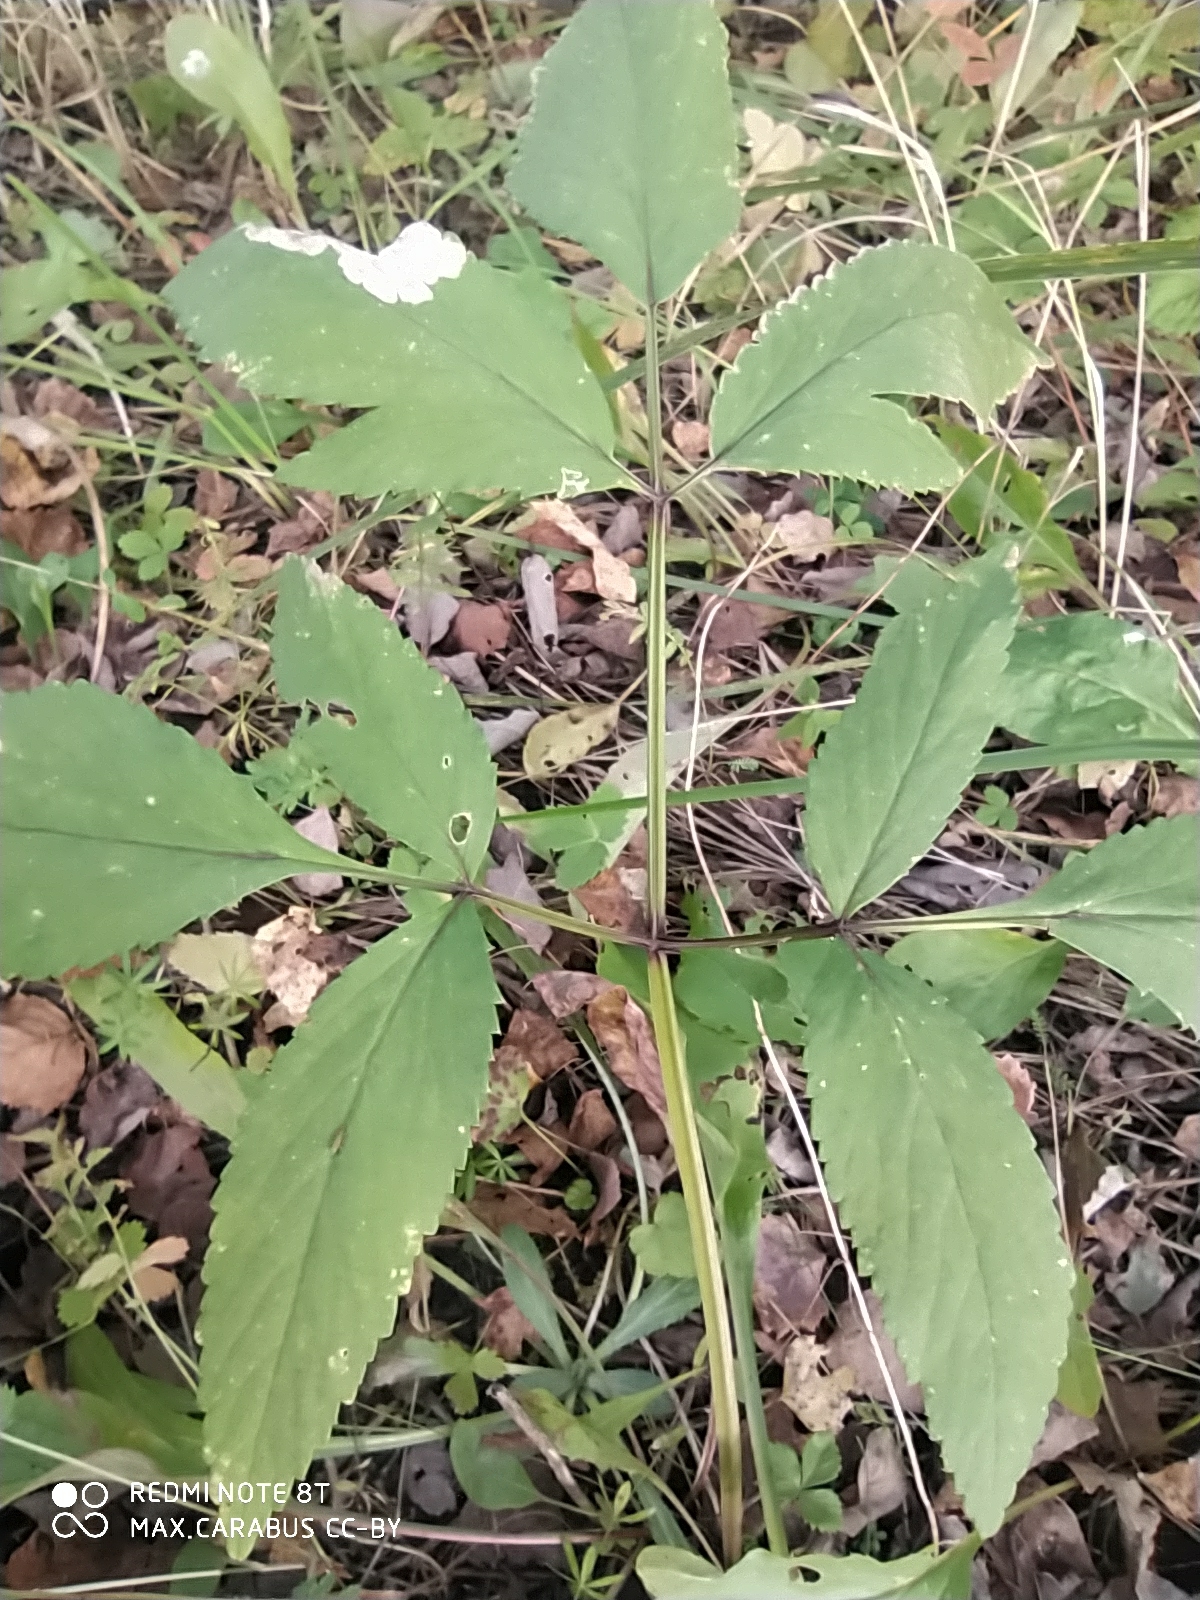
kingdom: Plantae
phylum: Tracheophyta
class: Magnoliopsida
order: Apiales
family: Apiaceae
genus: Angelica
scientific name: Angelica sylvestris
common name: Wild angelica
